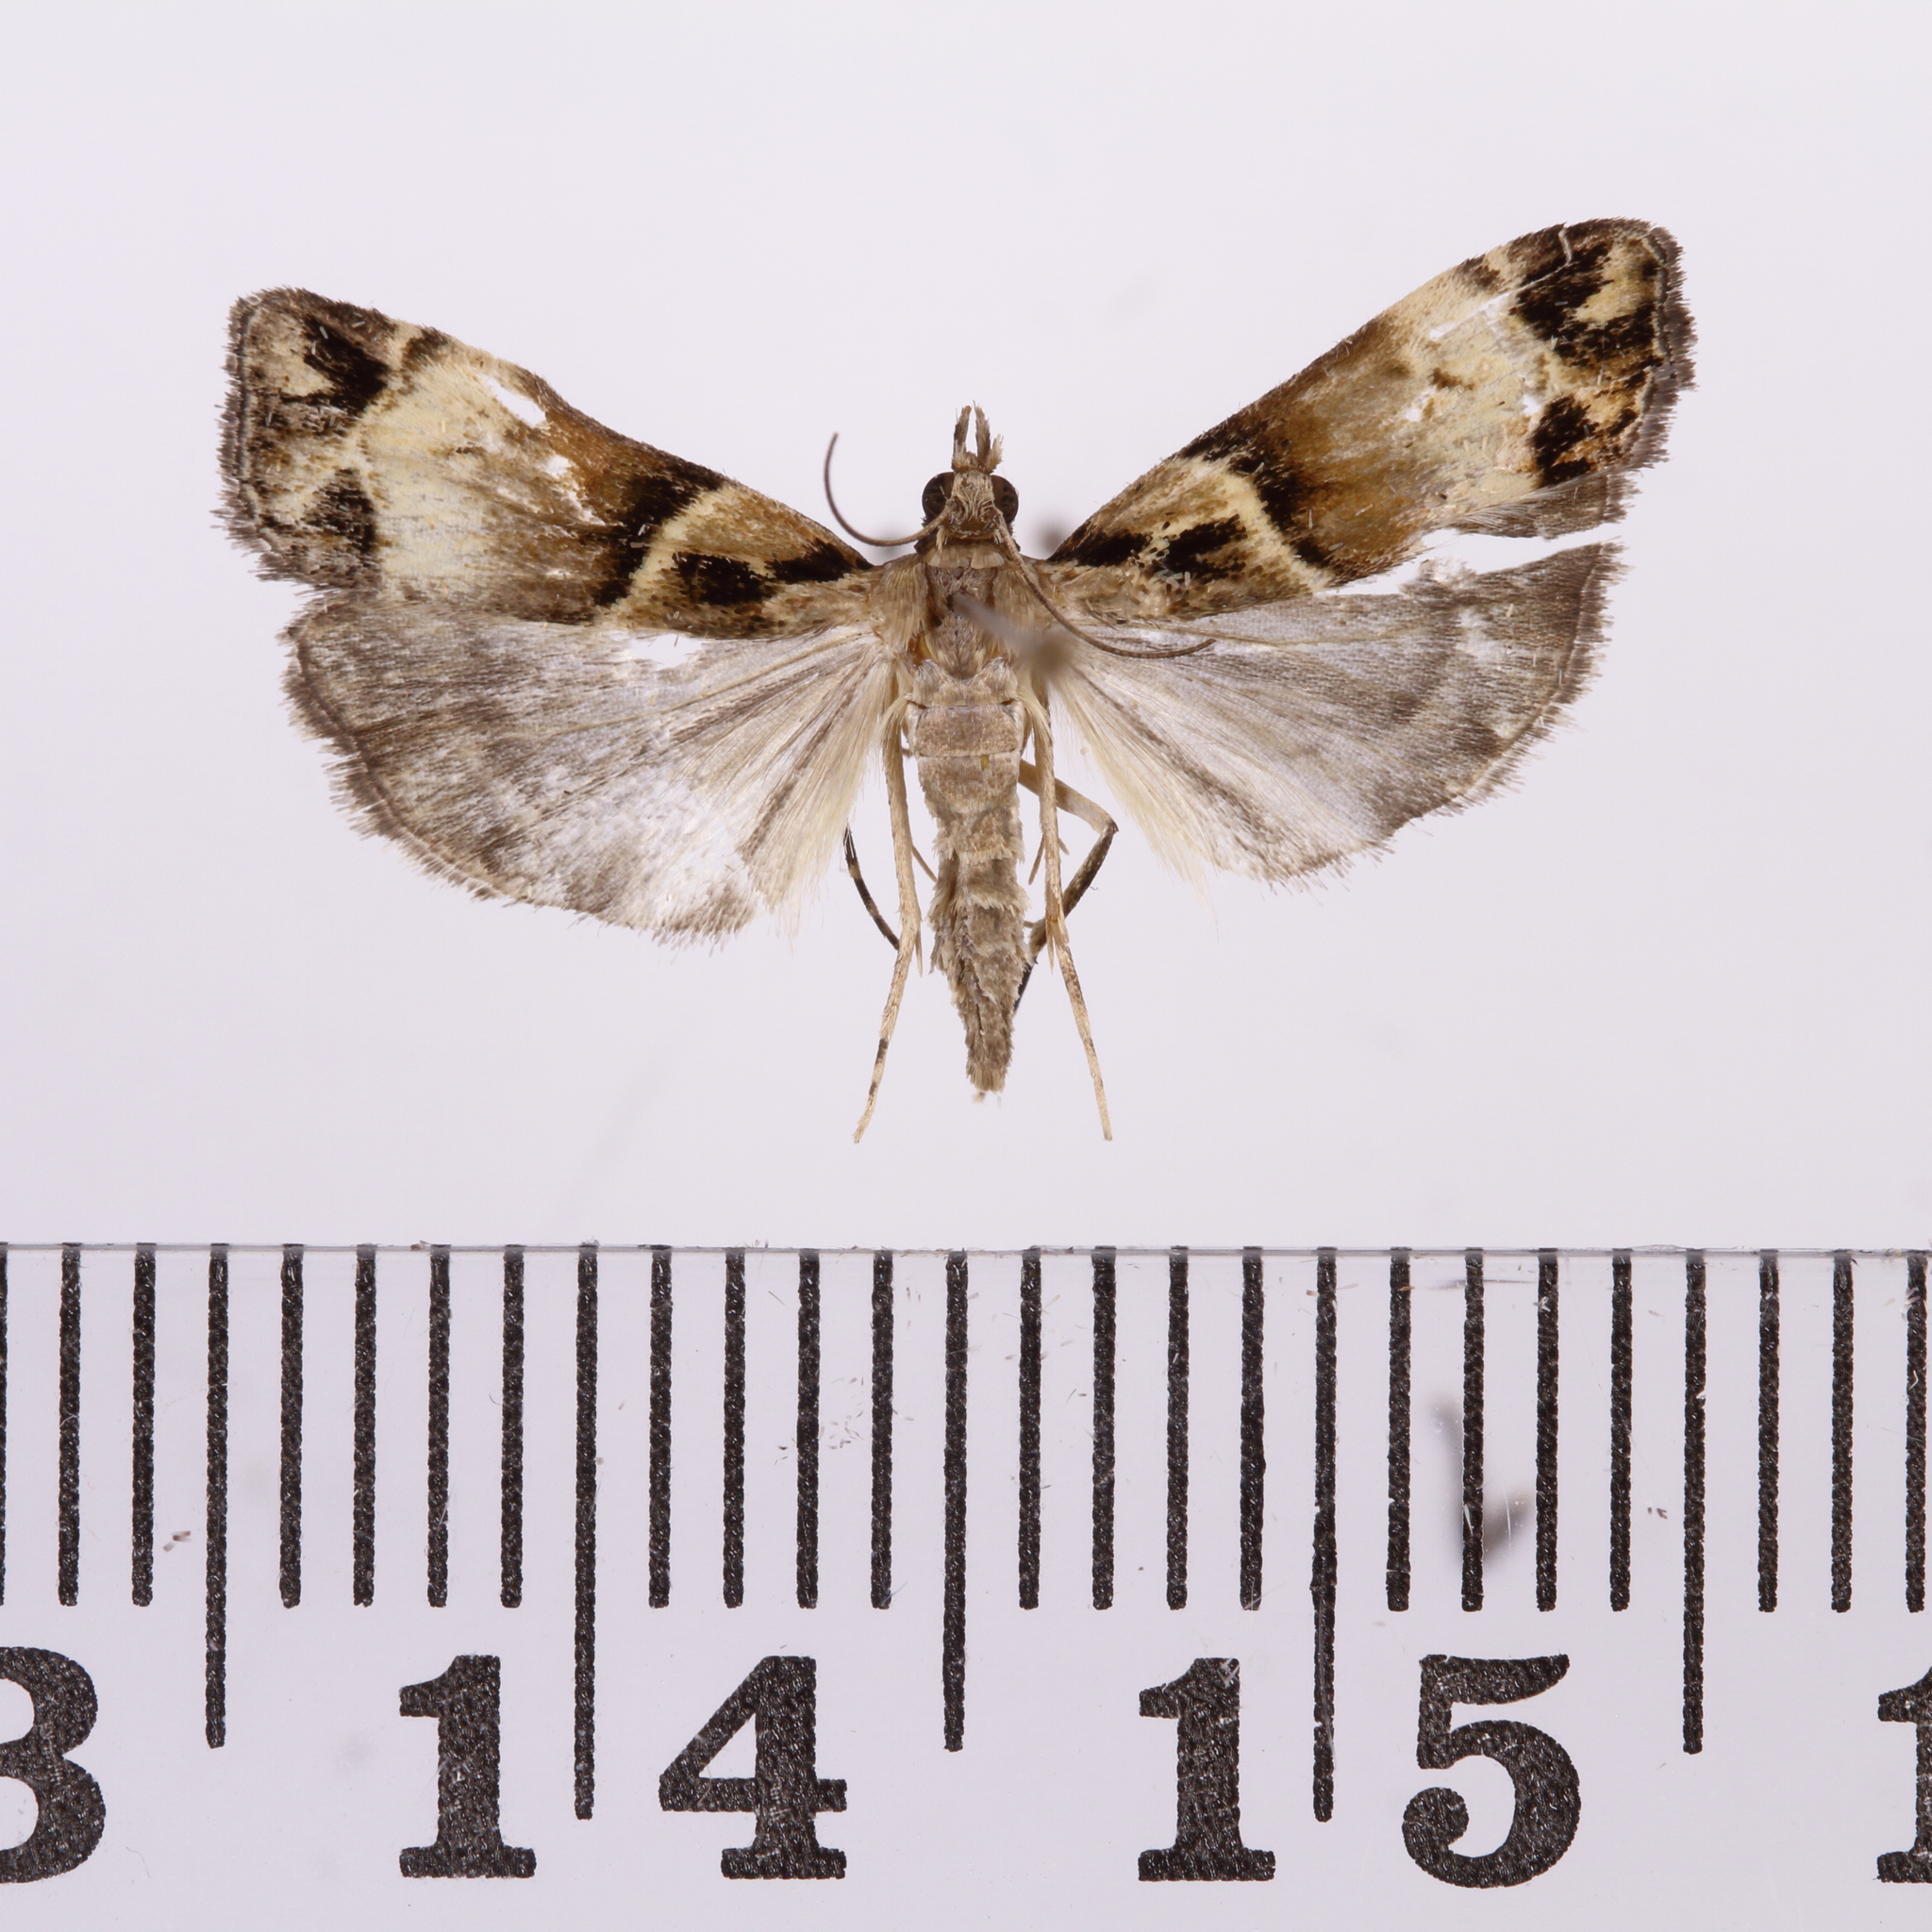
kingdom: Animalia
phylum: Arthropoda
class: Insecta
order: Lepidoptera
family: Crambidae
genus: Eudonia
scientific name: Eudonia periphanes
